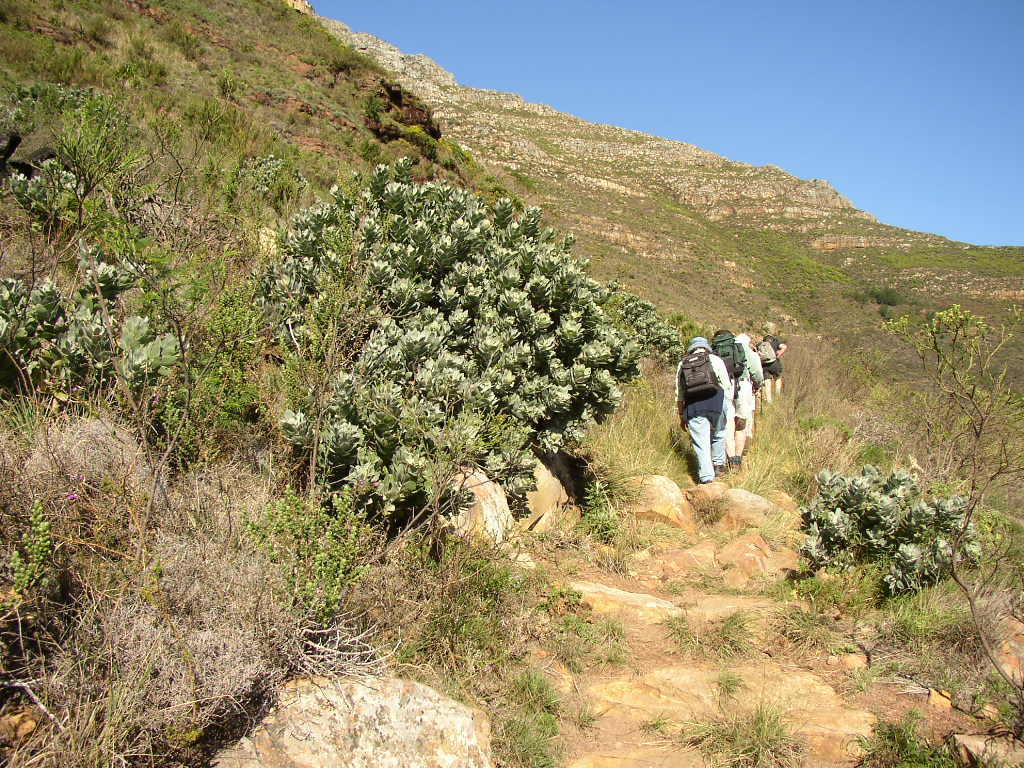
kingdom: Plantae
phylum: Tracheophyta
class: Magnoliopsida
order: Proteales
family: Proteaceae
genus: Leucospermum
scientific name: Leucospermum conocarpodendron
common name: Tree pincushion
